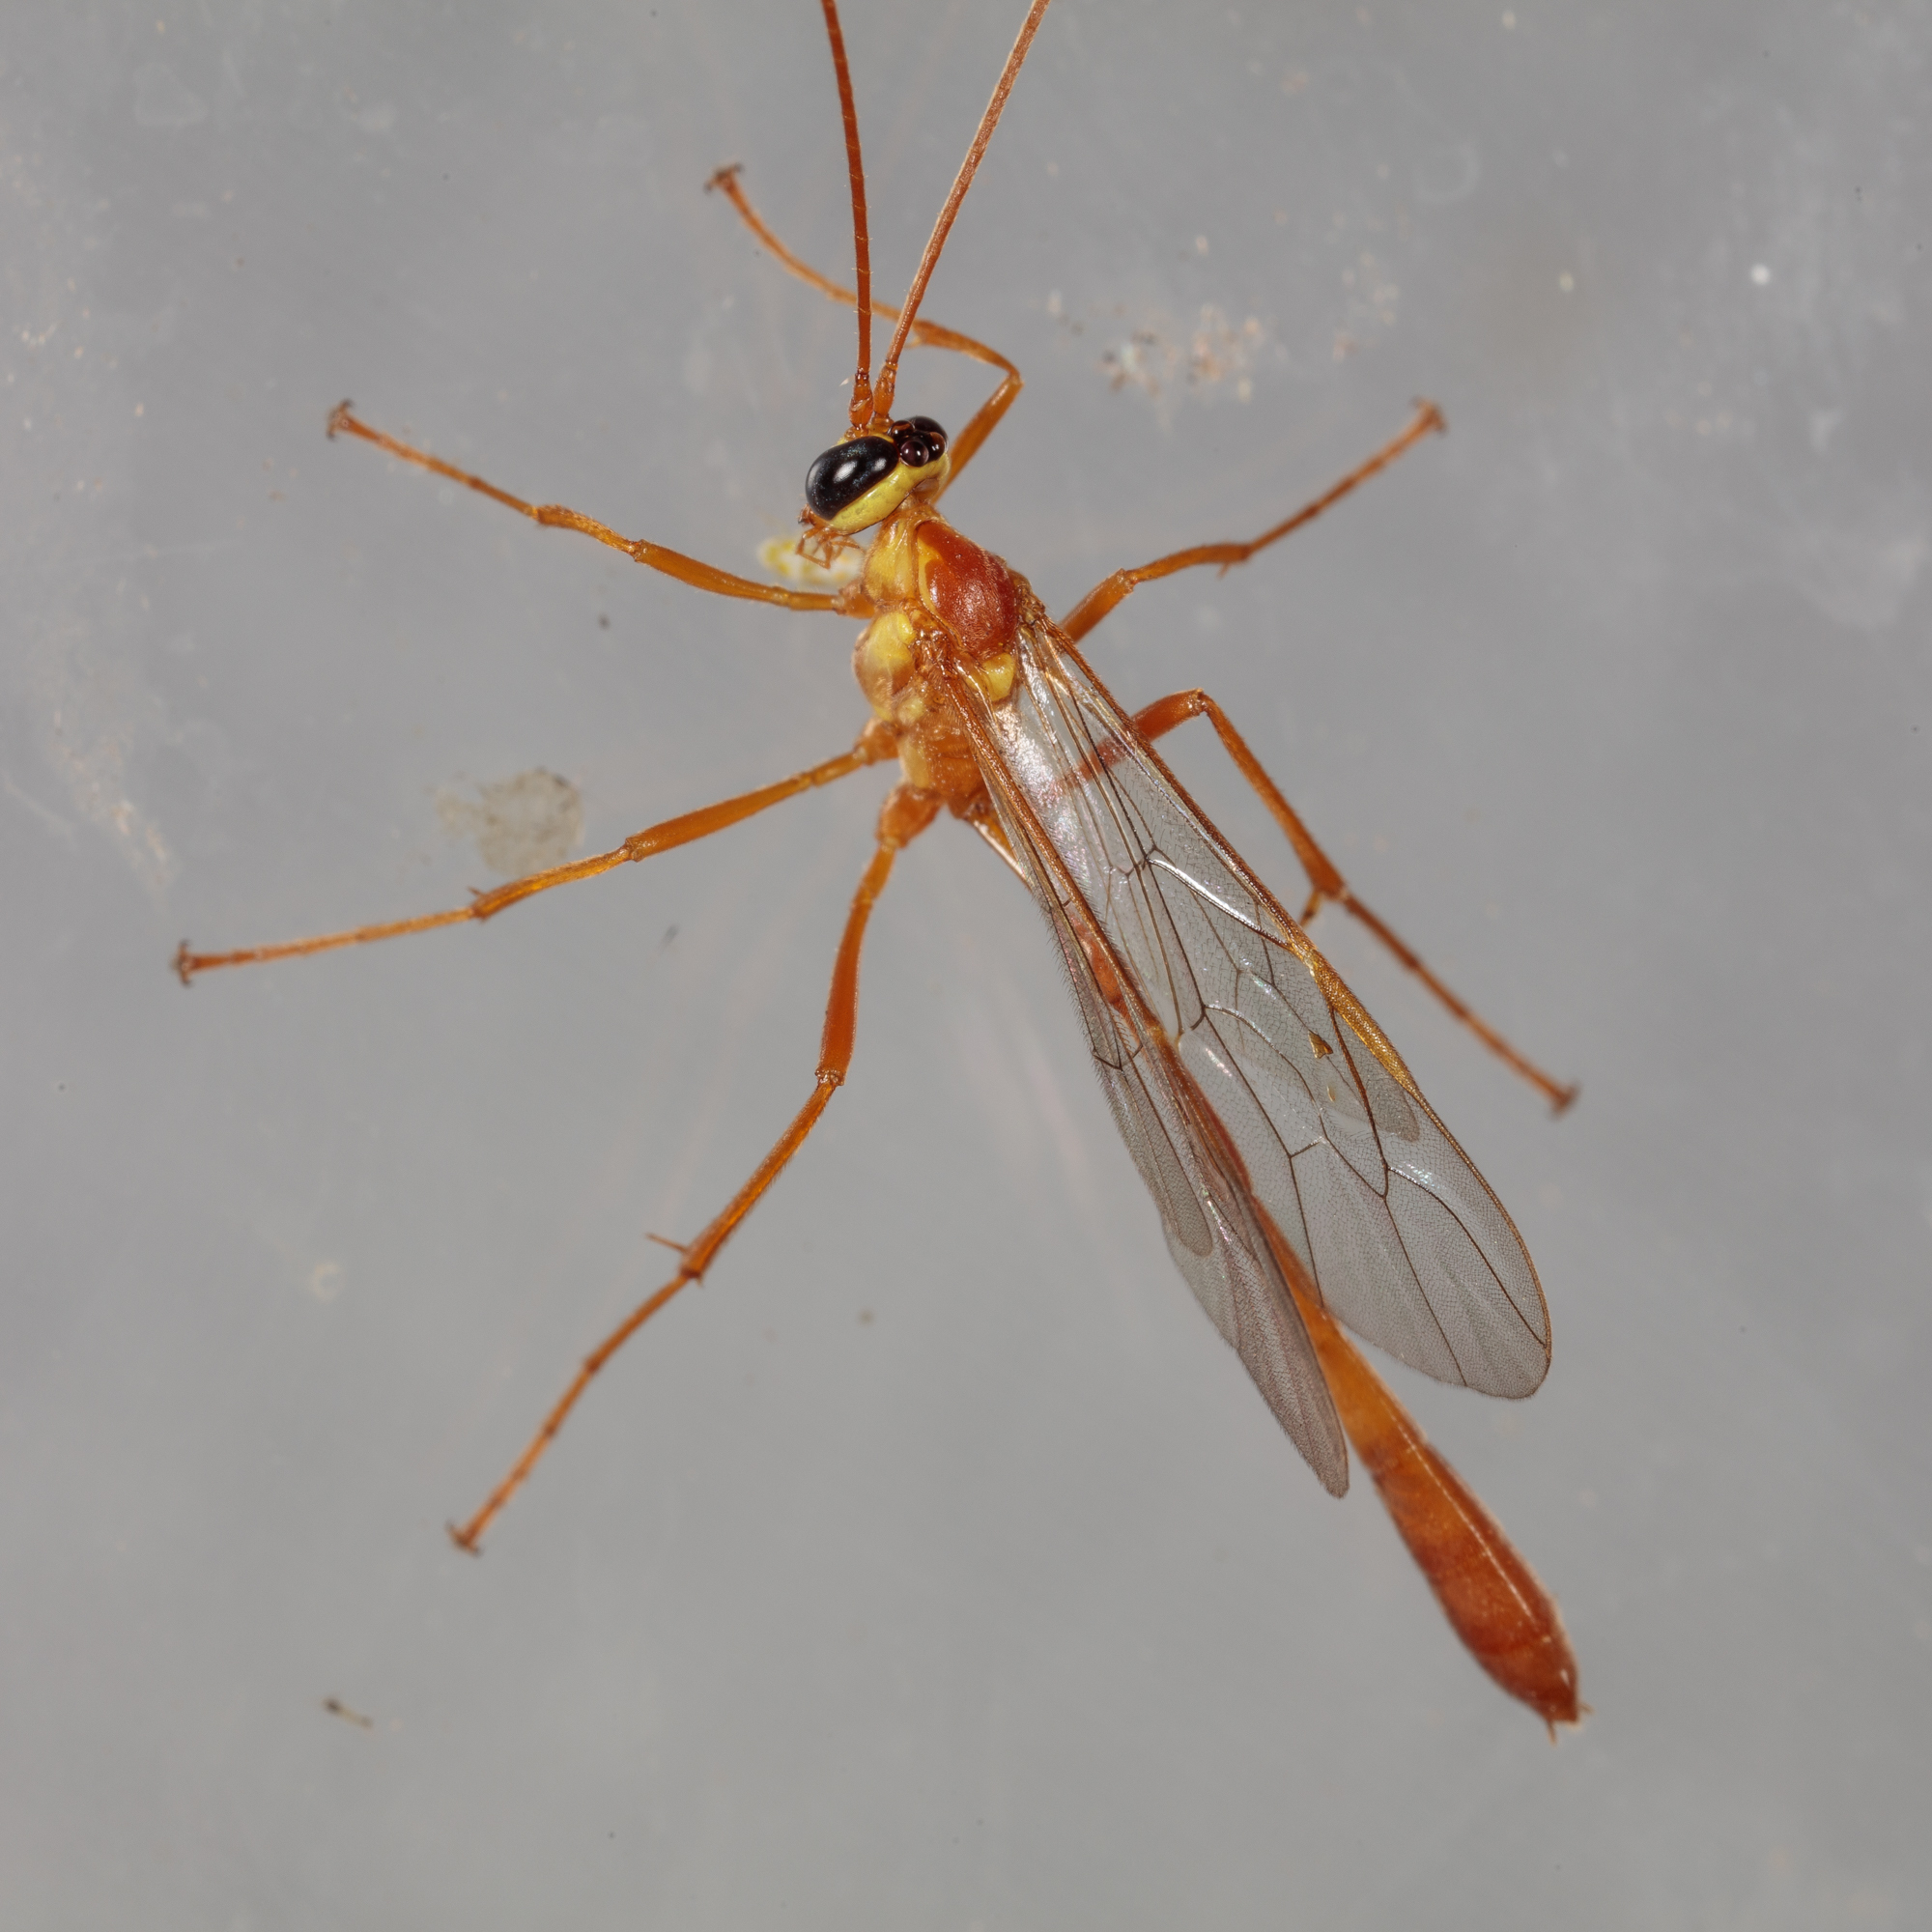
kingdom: Animalia
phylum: Arthropoda
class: Insecta
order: Hymenoptera
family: Ichneumonidae
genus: Enicospilus
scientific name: Enicospilus flavostigma
